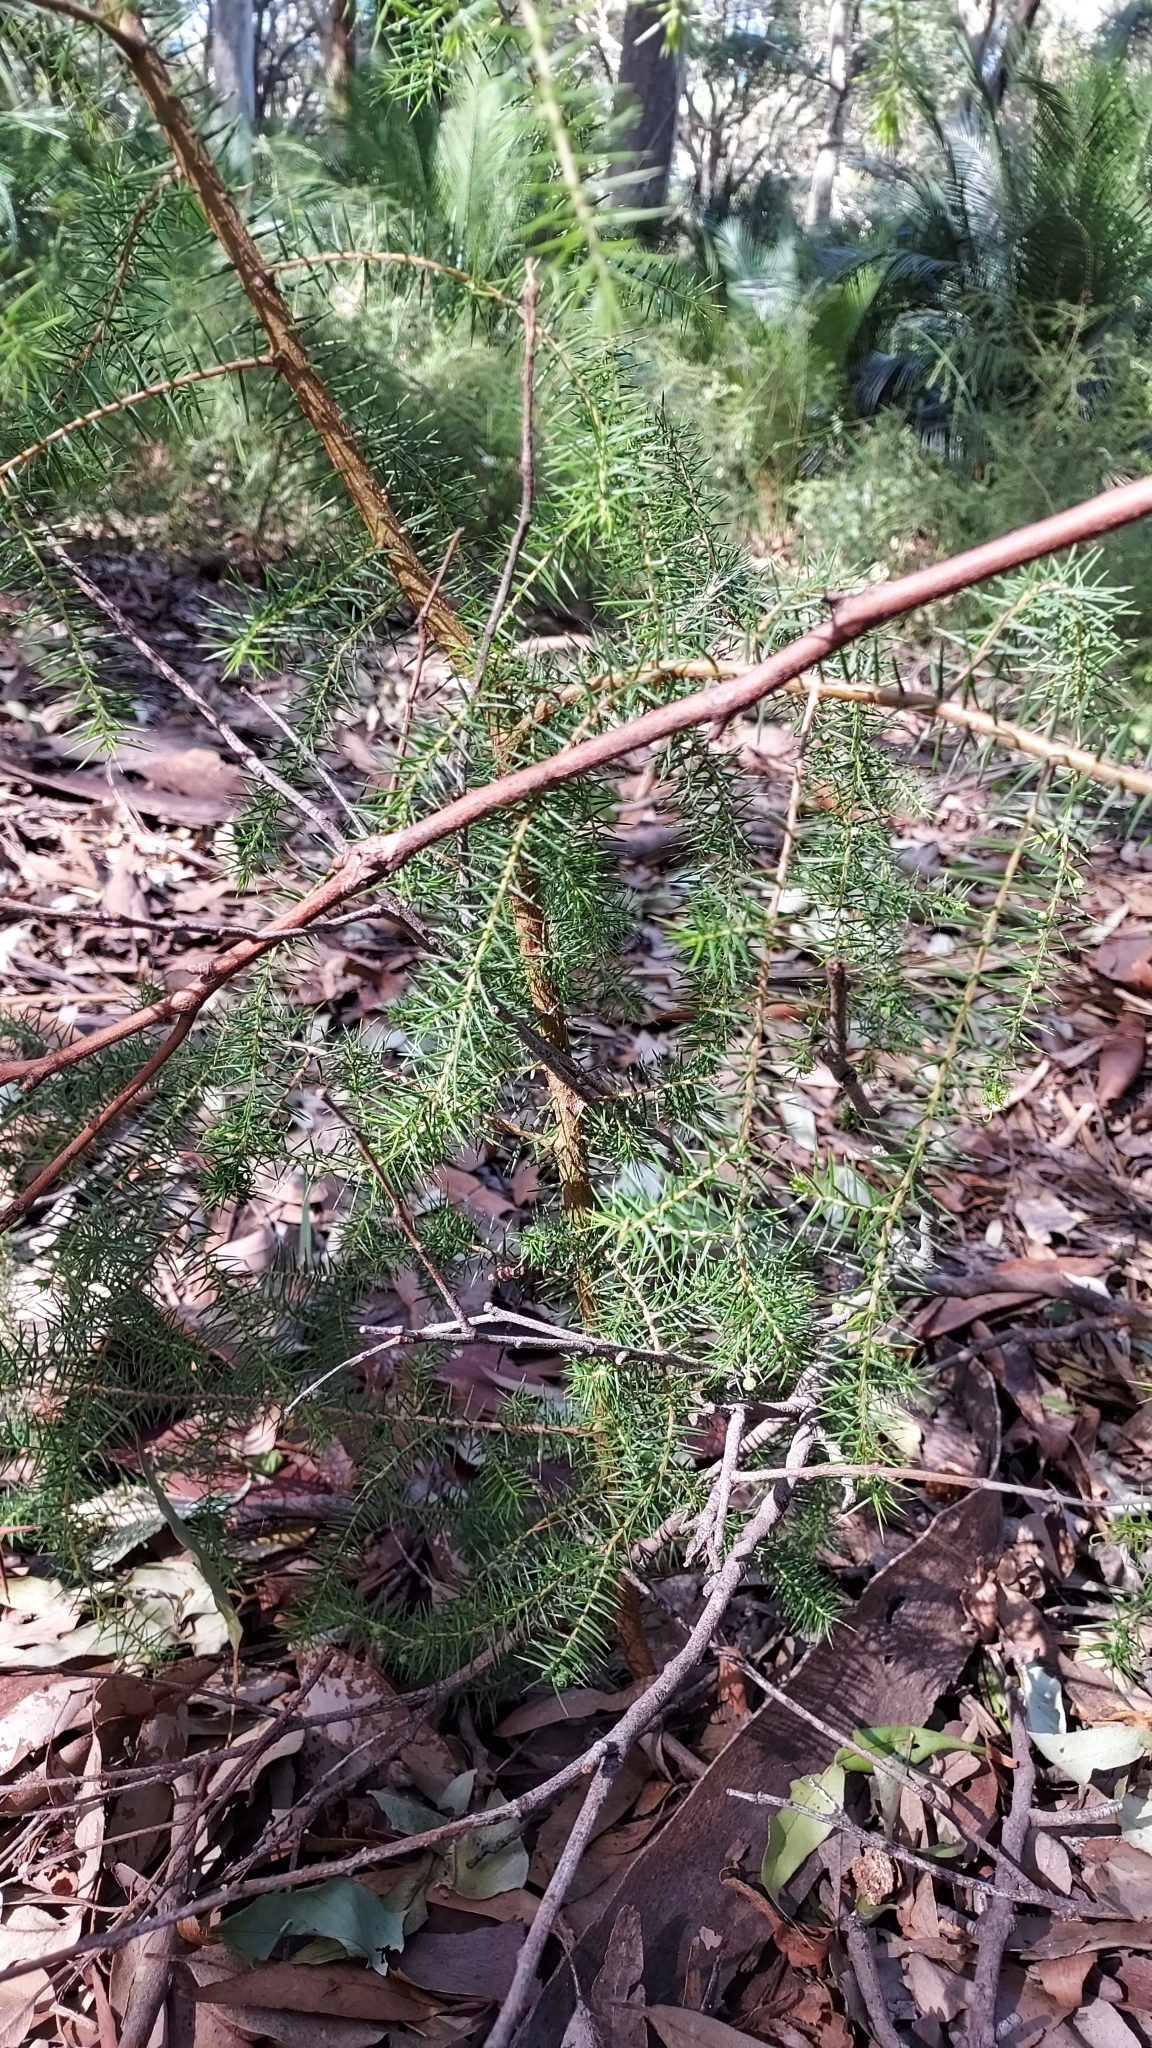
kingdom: Plantae
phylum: Tracheophyta
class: Magnoliopsida
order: Fabales
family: Fabaceae
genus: Acacia
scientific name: Acacia ulicifolia
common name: Juniper wattle
